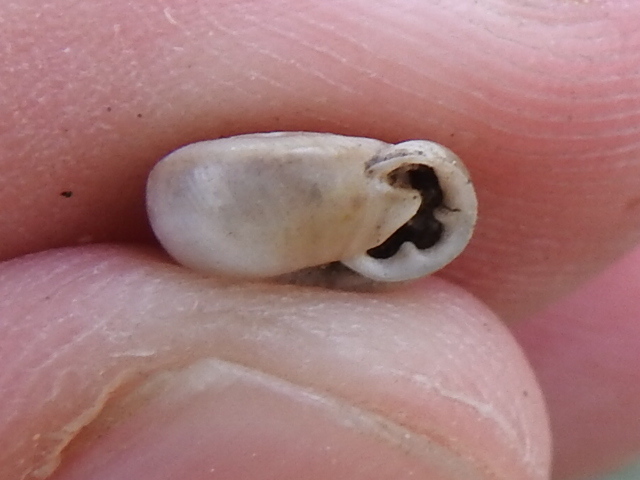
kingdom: Animalia
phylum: Mollusca
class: Gastropoda
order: Stylommatophora
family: Polygyridae
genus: Linisa
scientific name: Linisa texasiana
